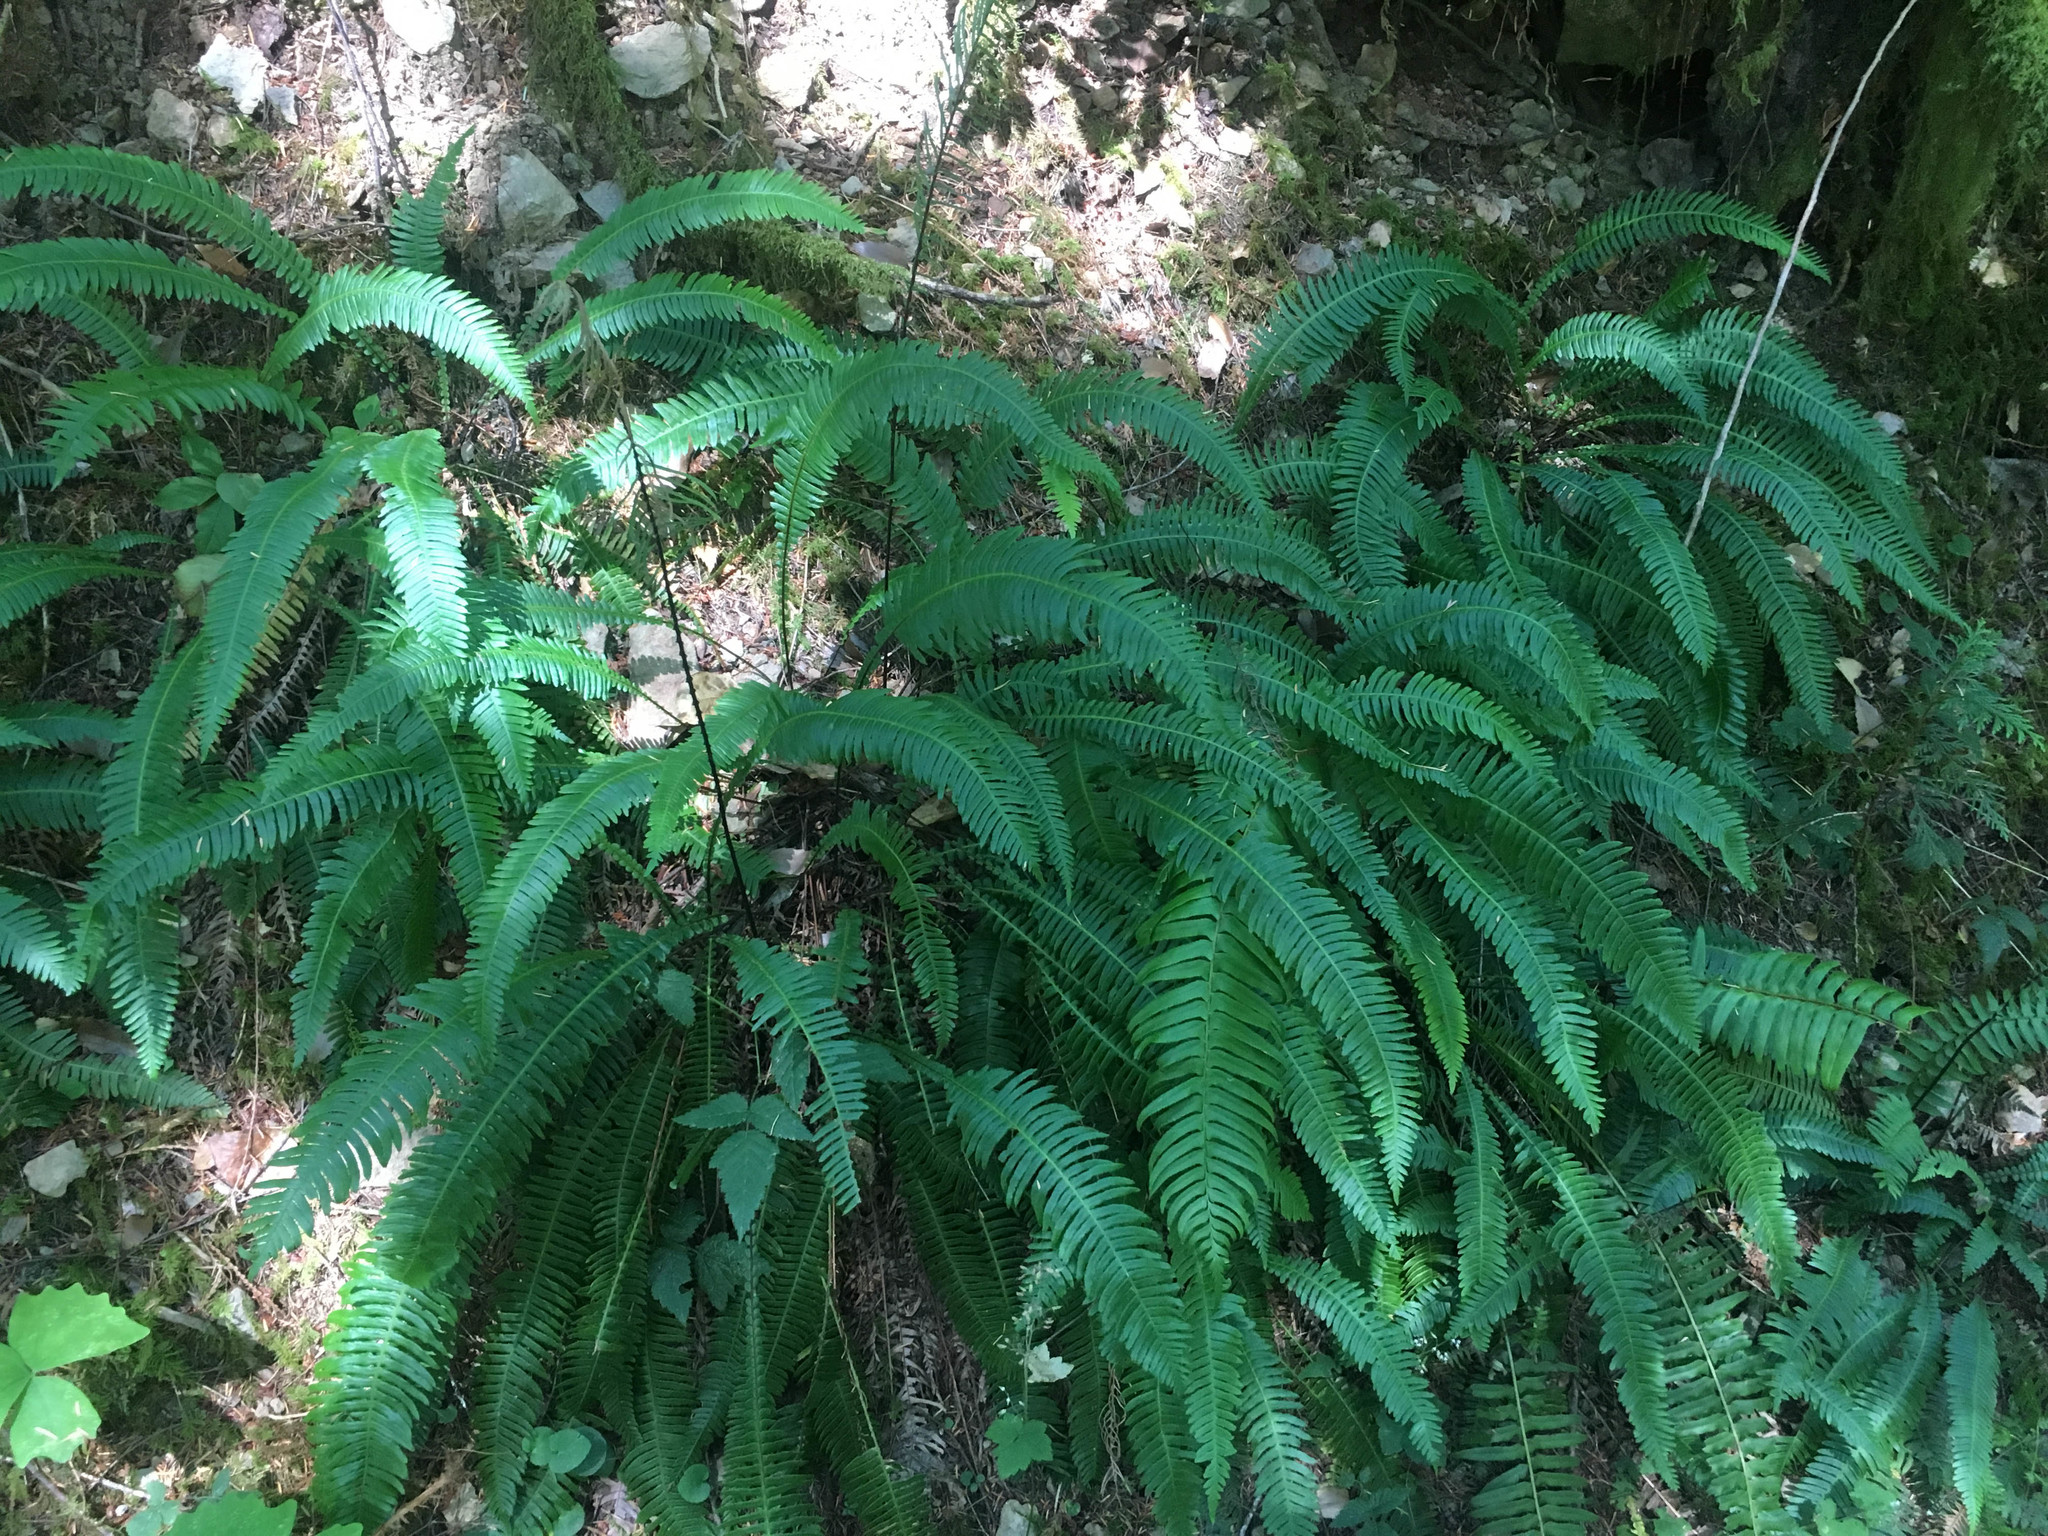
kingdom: Plantae
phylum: Tracheophyta
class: Polypodiopsida
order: Polypodiales
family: Blechnaceae
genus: Struthiopteris
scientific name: Struthiopteris spicant
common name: Deer fern
